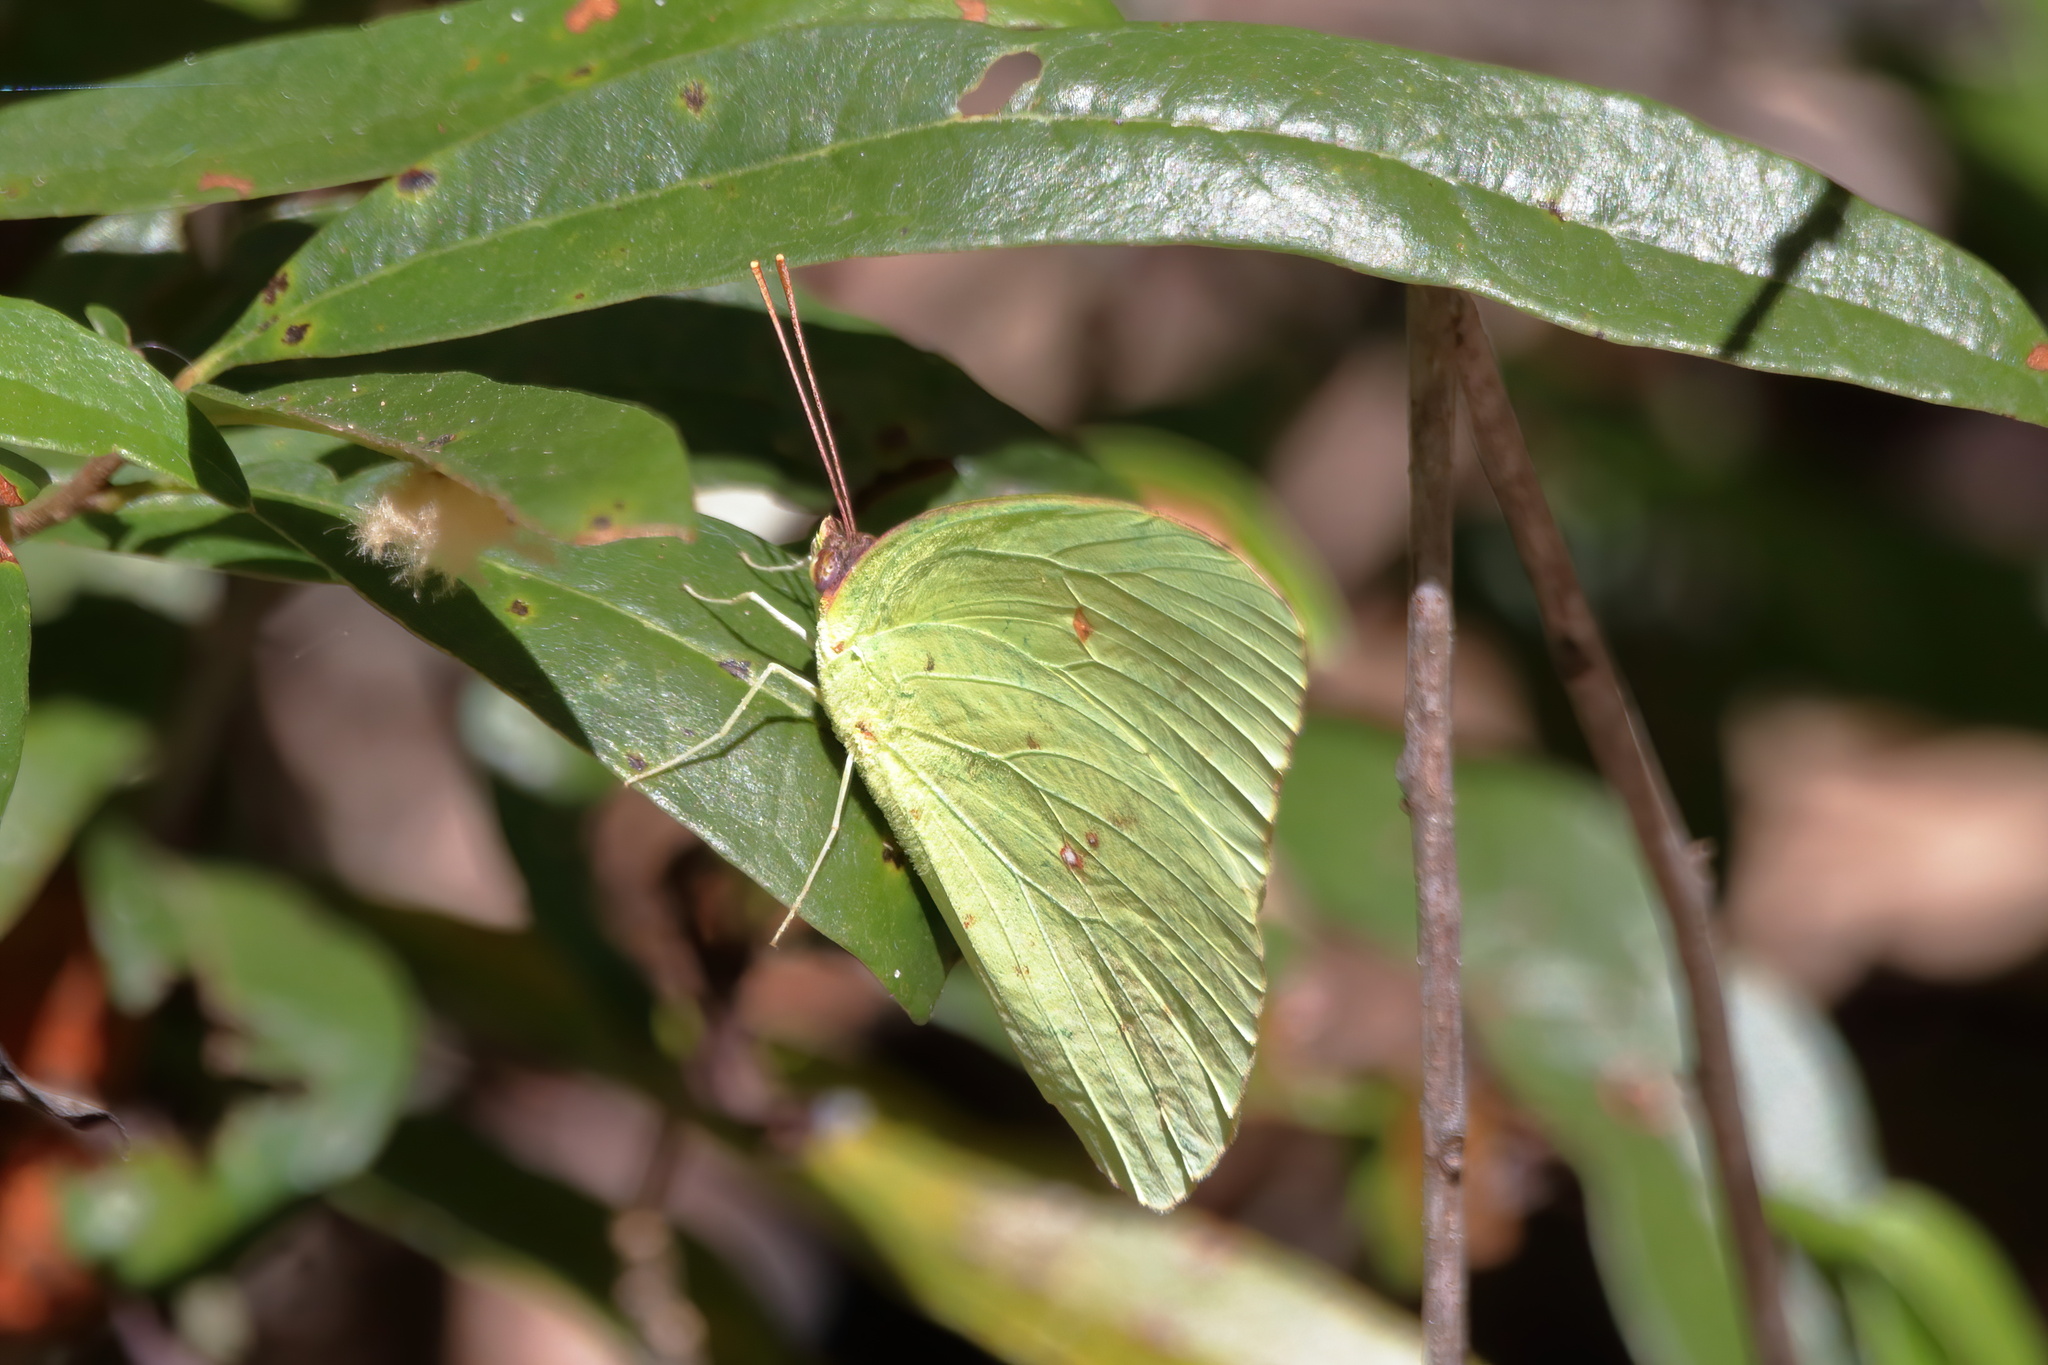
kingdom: Animalia
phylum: Arthropoda
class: Insecta
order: Lepidoptera
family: Pieridae
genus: Phoebis
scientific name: Phoebis sennae
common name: Cloudless sulphur
